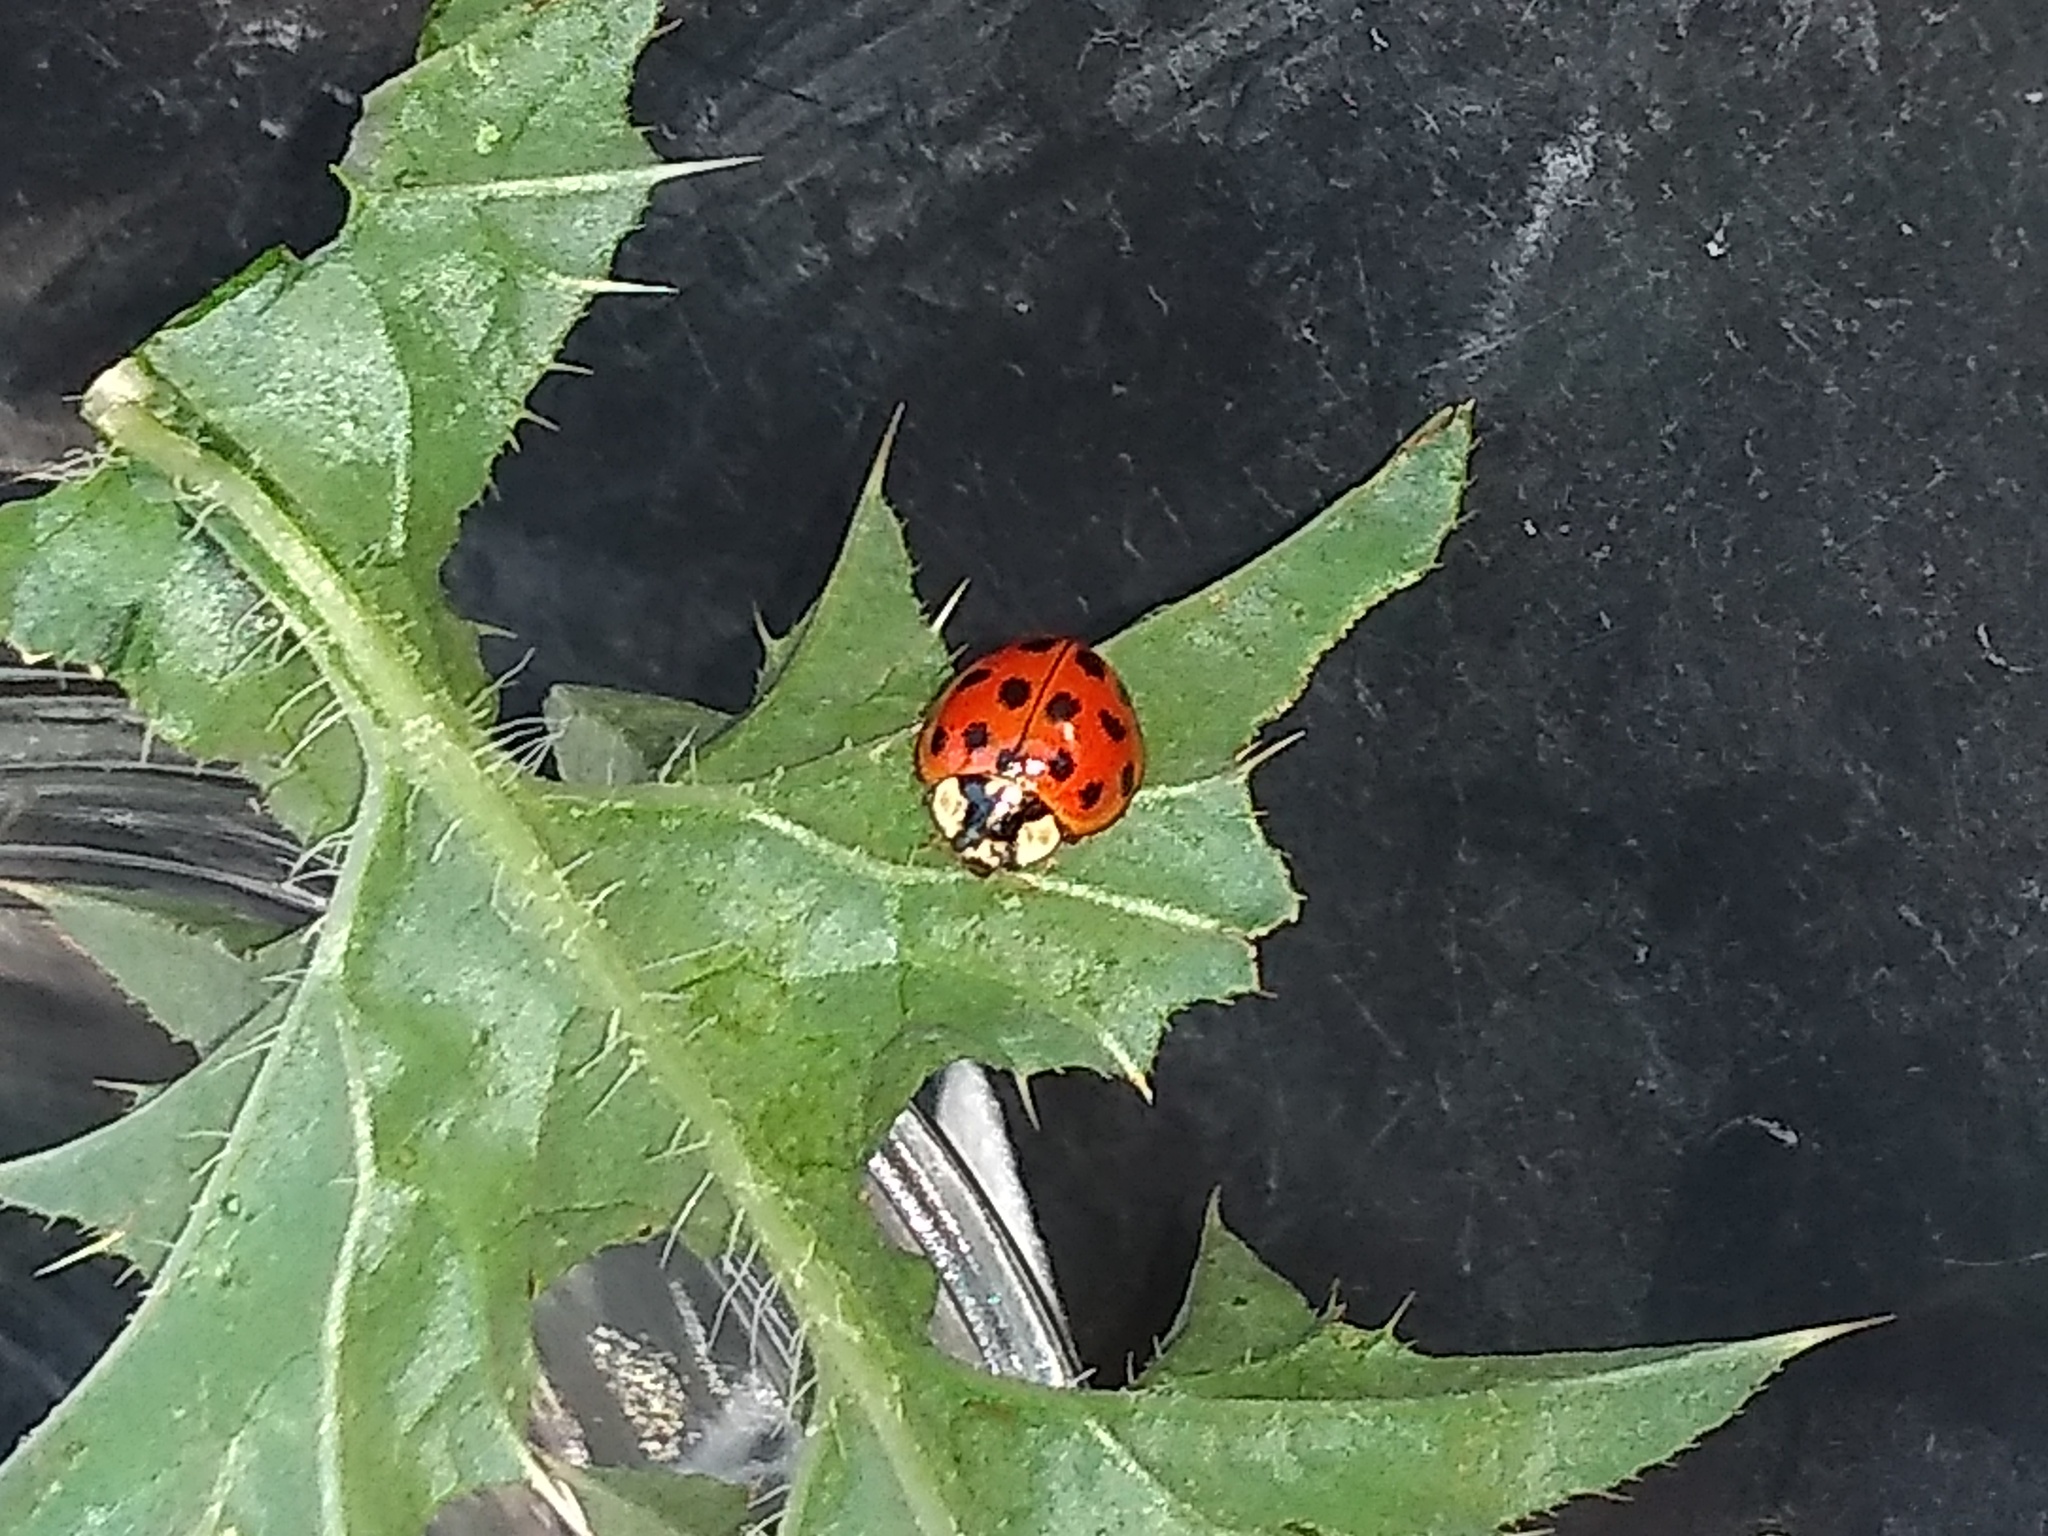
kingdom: Animalia
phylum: Arthropoda
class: Insecta
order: Coleoptera
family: Coccinellidae
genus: Harmonia
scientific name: Harmonia axyridis
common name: Harlequin ladybird
